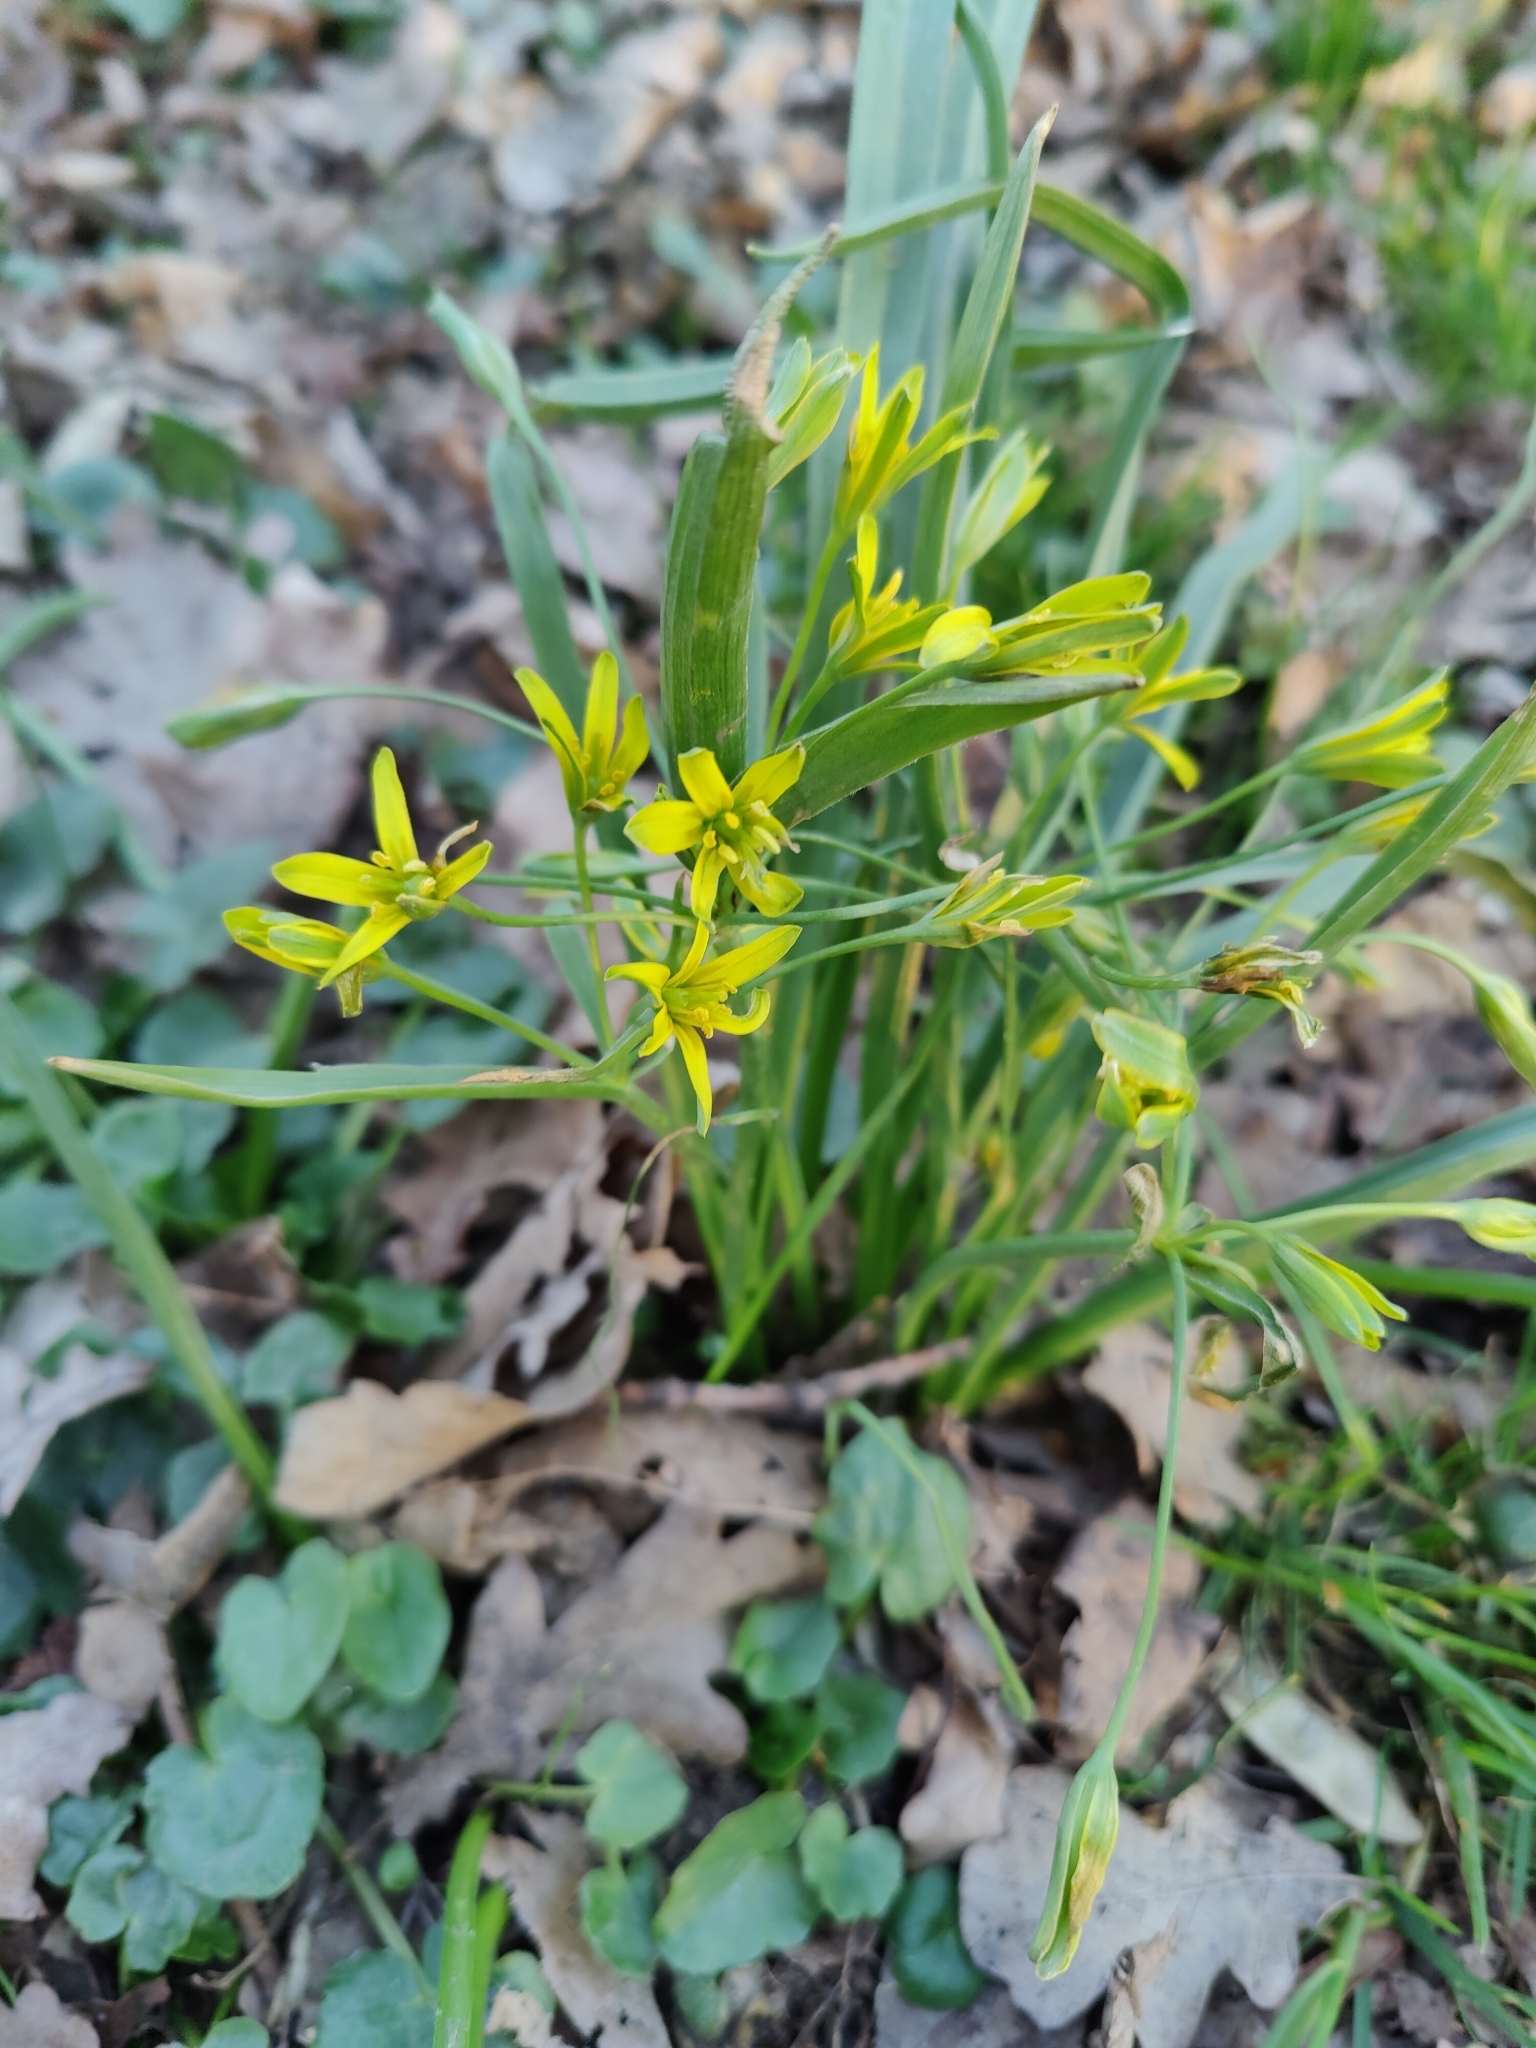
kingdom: Plantae
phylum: Tracheophyta
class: Liliopsida
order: Liliales
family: Liliaceae
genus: Gagea
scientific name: Gagea lutea
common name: Yellow star-of-bethlehem
